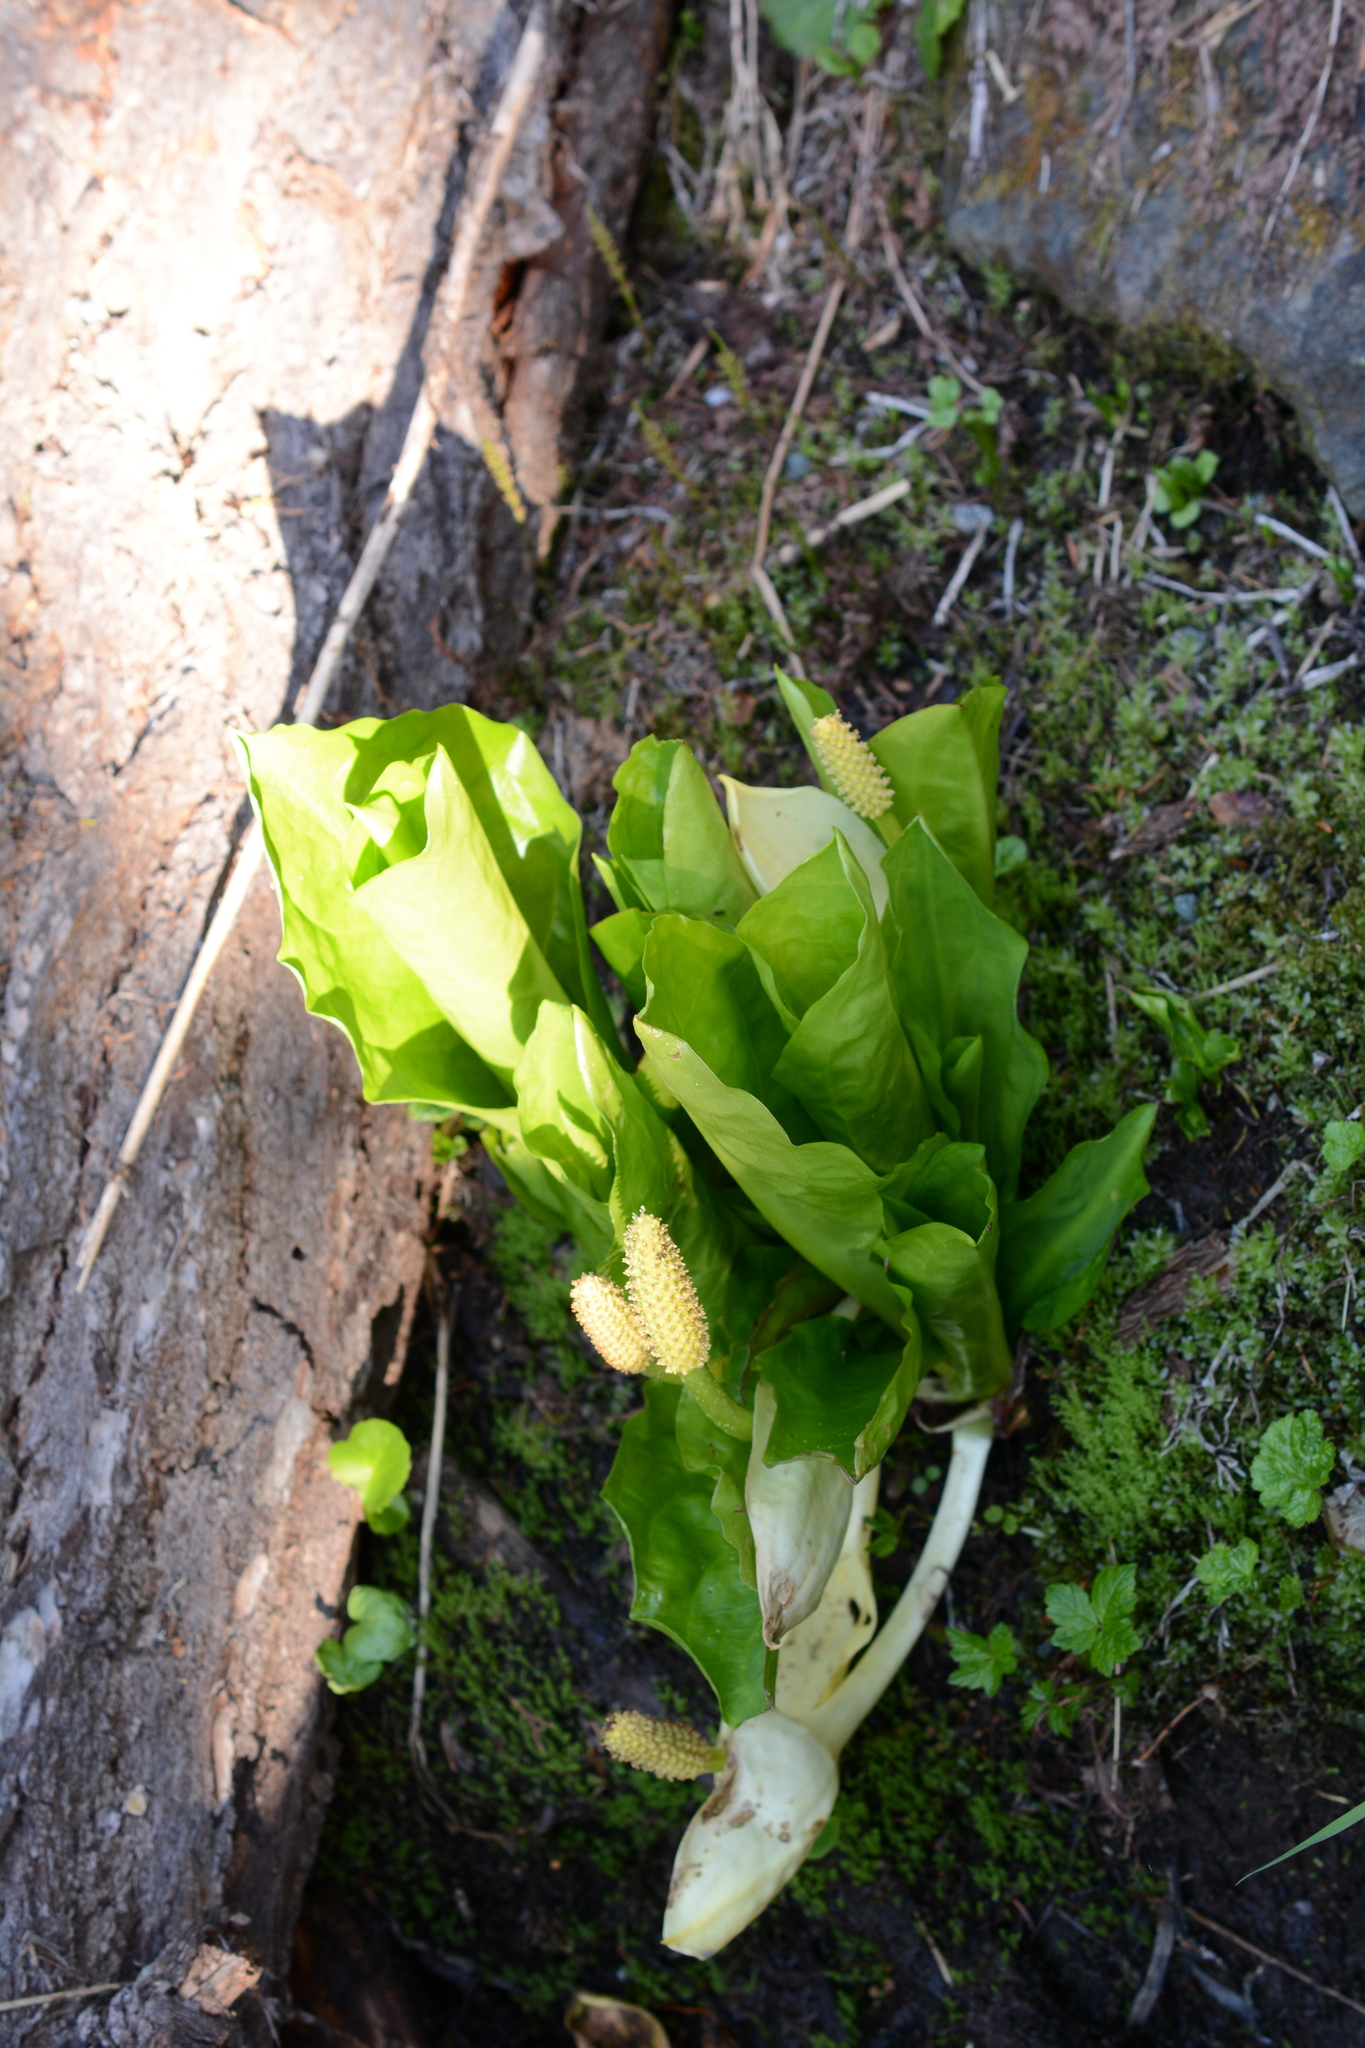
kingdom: Plantae
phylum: Tracheophyta
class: Liliopsida
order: Alismatales
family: Araceae
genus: Lysichiton
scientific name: Lysichiton americanus
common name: American skunk cabbage
